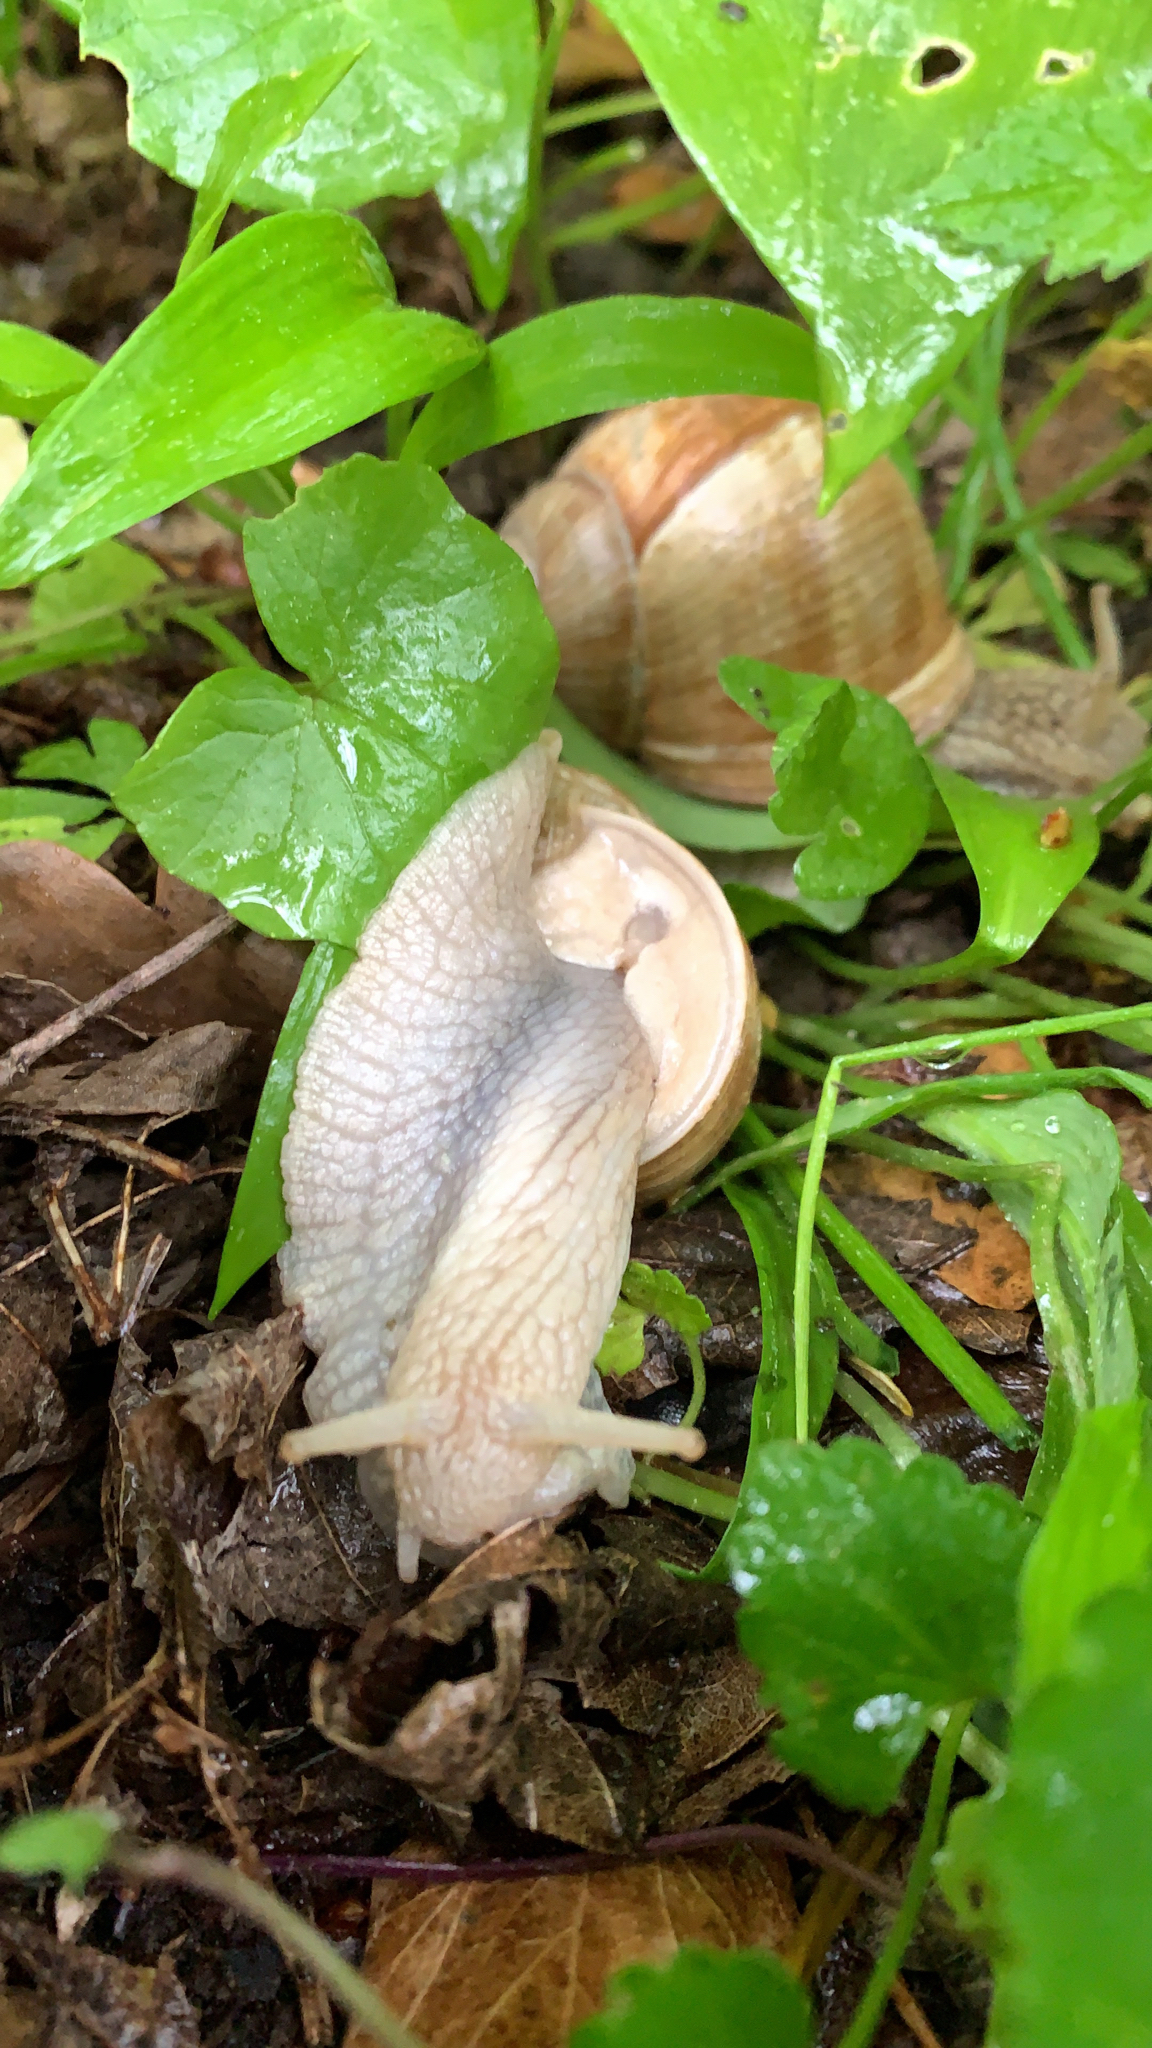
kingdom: Animalia
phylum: Mollusca
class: Gastropoda
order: Stylommatophora
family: Helicidae
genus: Helix
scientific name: Helix pomatia
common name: Roman snail
